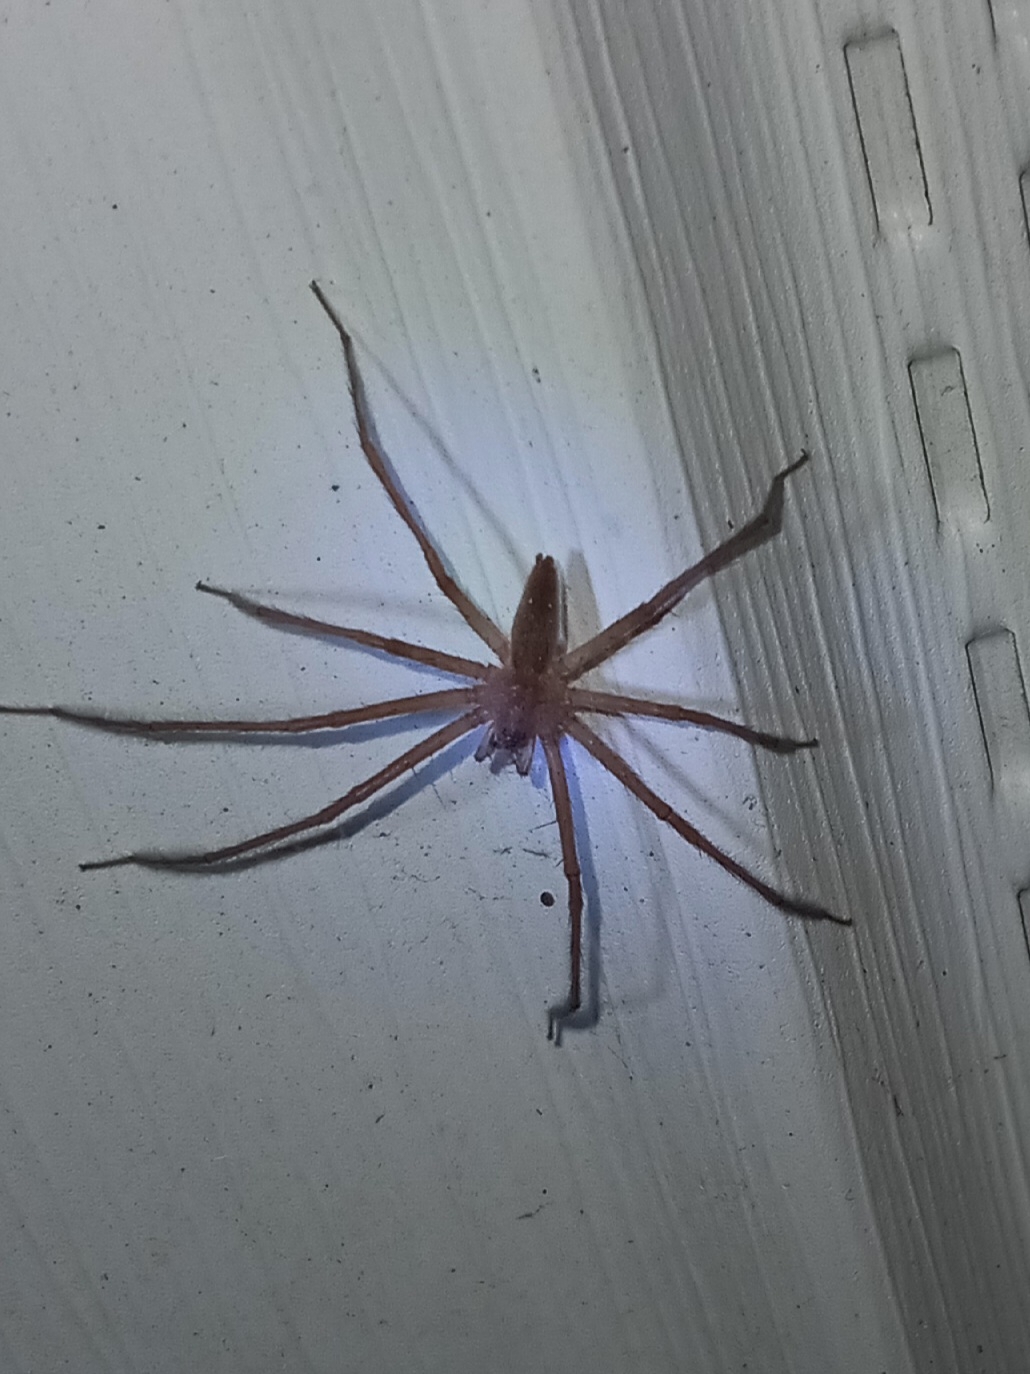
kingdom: Animalia
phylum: Arthropoda
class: Arachnida
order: Araneae
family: Pisauridae
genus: Pisaurina
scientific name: Pisaurina mira
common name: American nursery web spider
